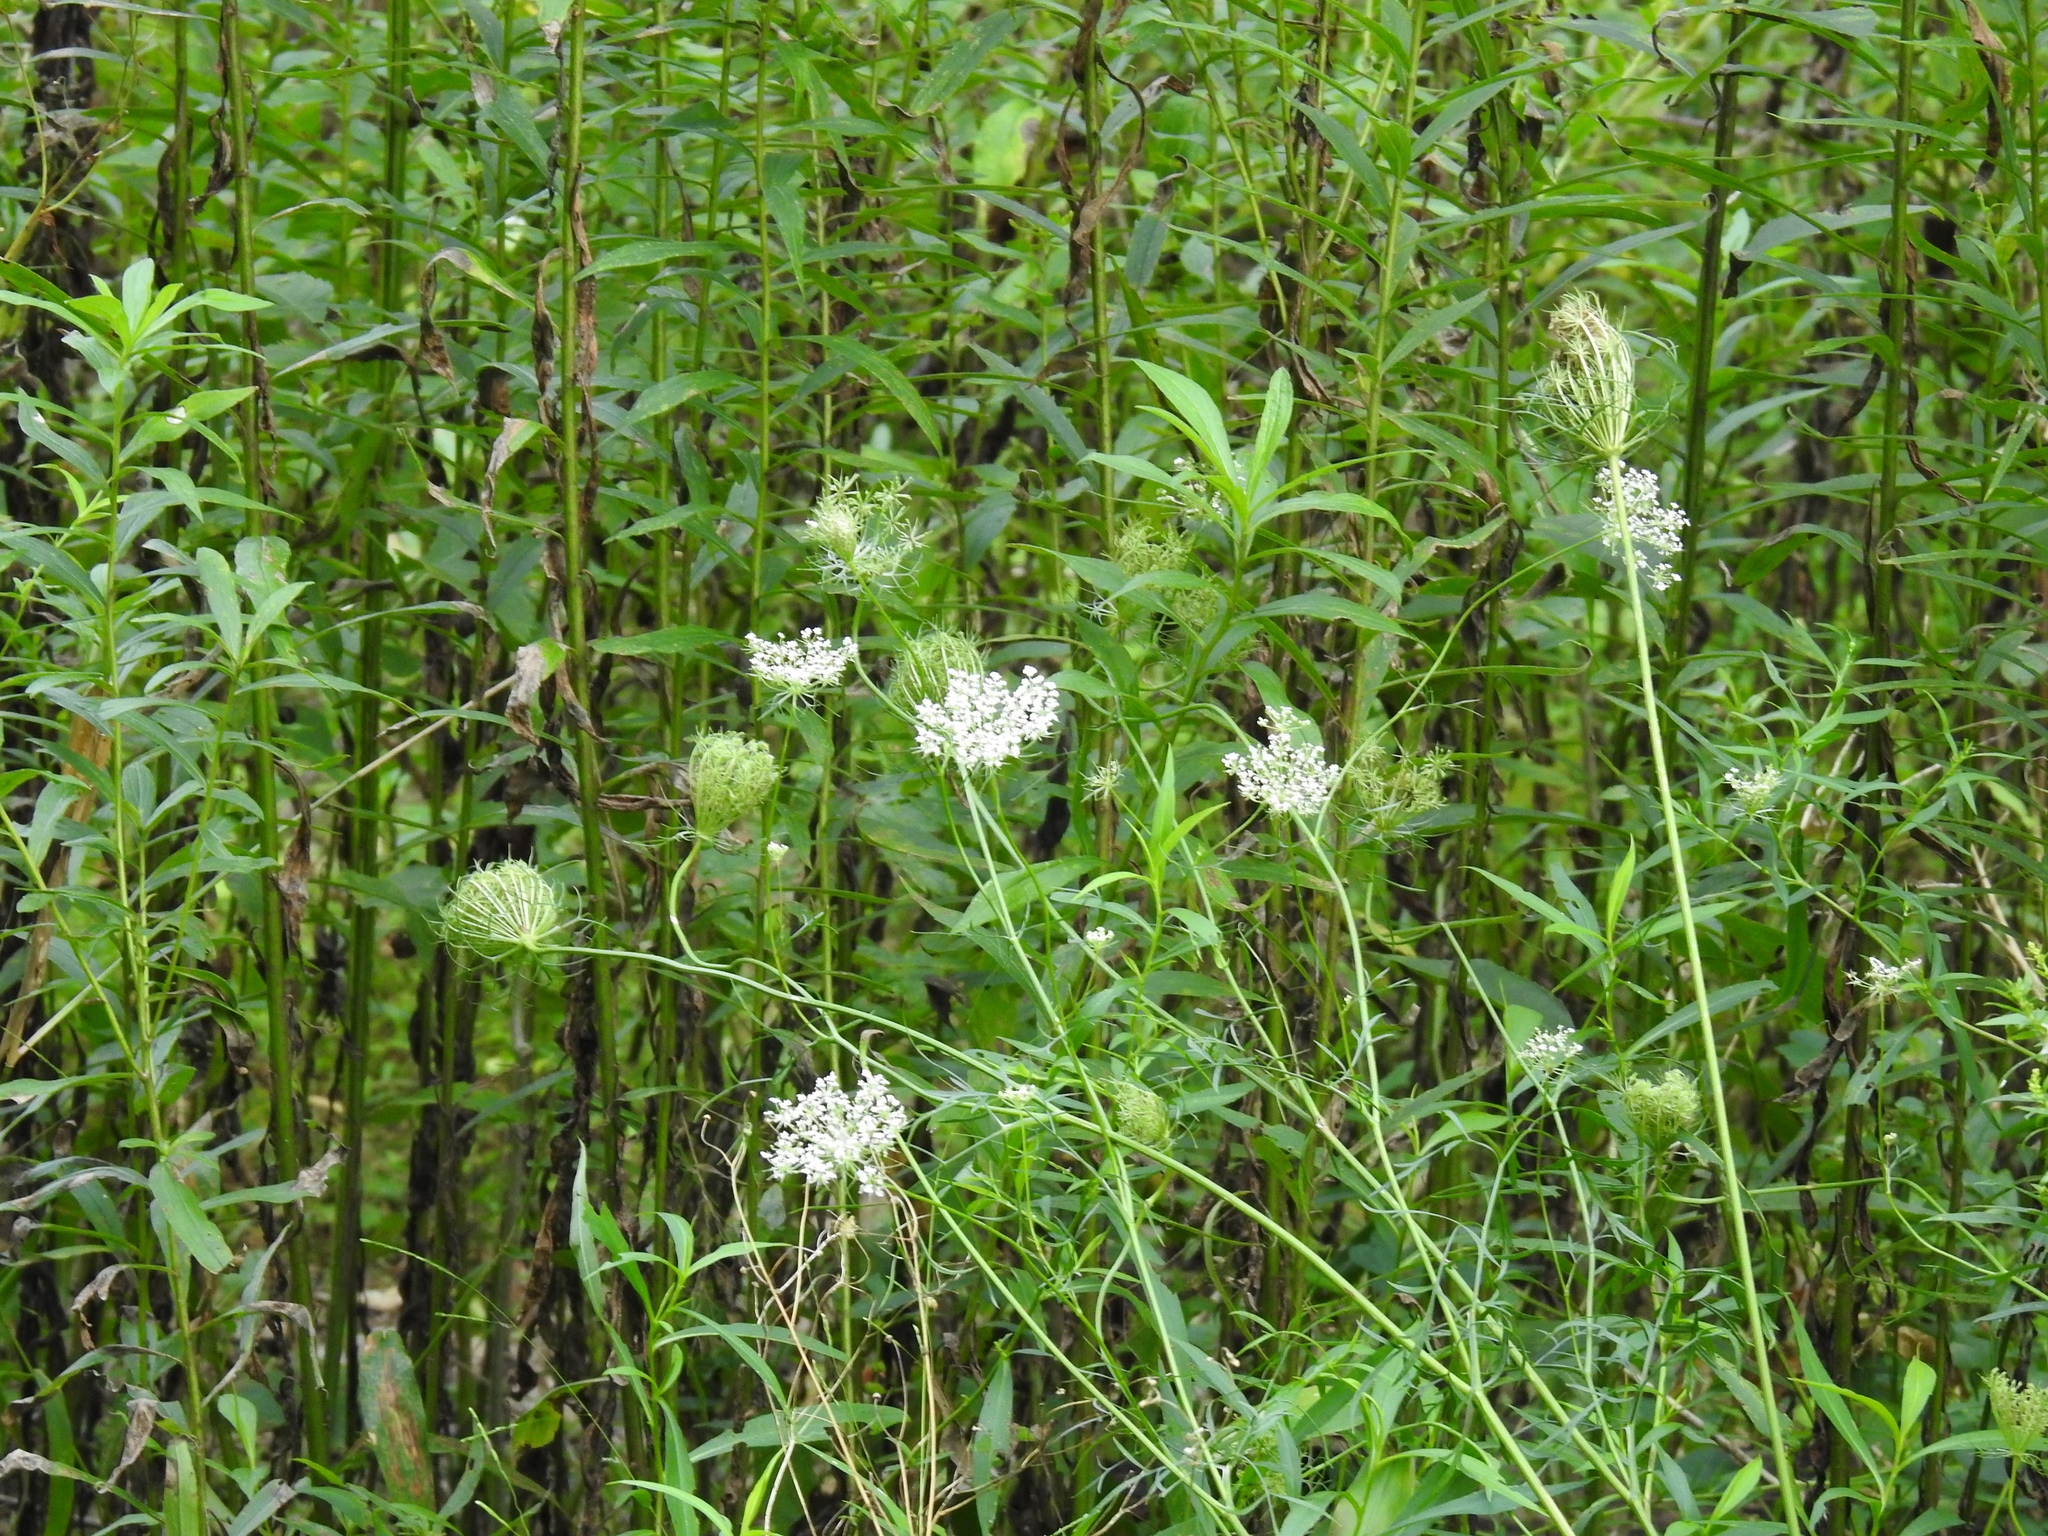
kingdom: Plantae
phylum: Tracheophyta
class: Magnoliopsida
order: Apiales
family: Apiaceae
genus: Daucus
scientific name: Daucus carota
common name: Wild carrot
